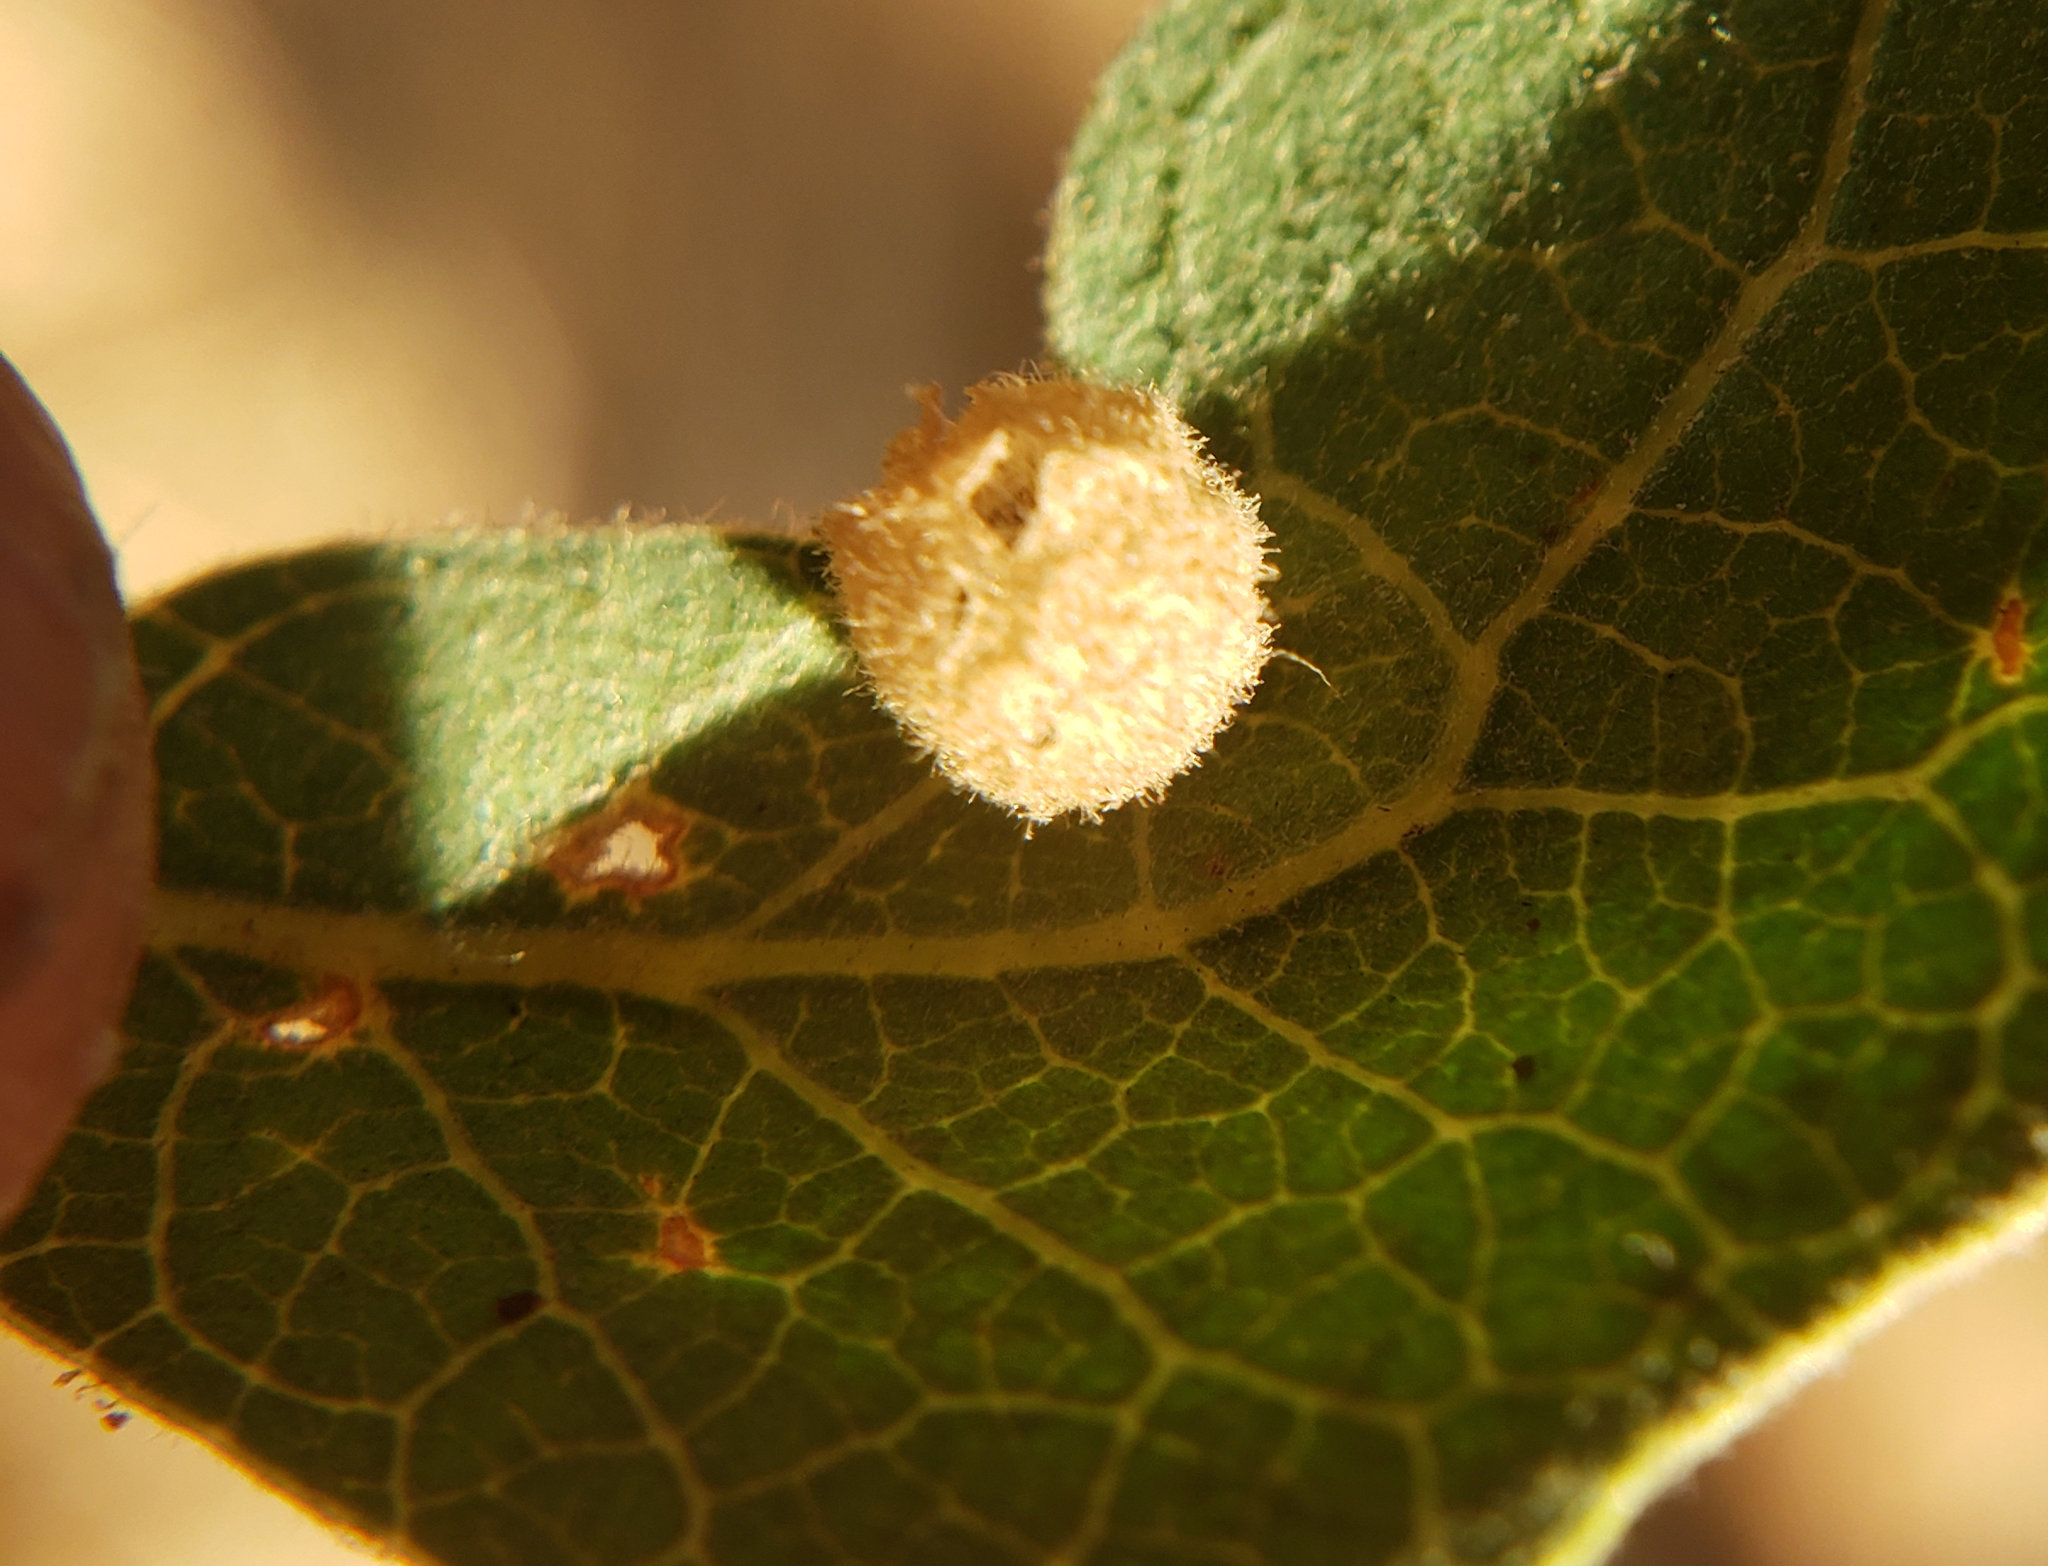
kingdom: Animalia
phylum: Arthropoda
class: Insecta
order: Hymenoptera
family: Cynipidae
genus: Andricus
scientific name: Andricus
